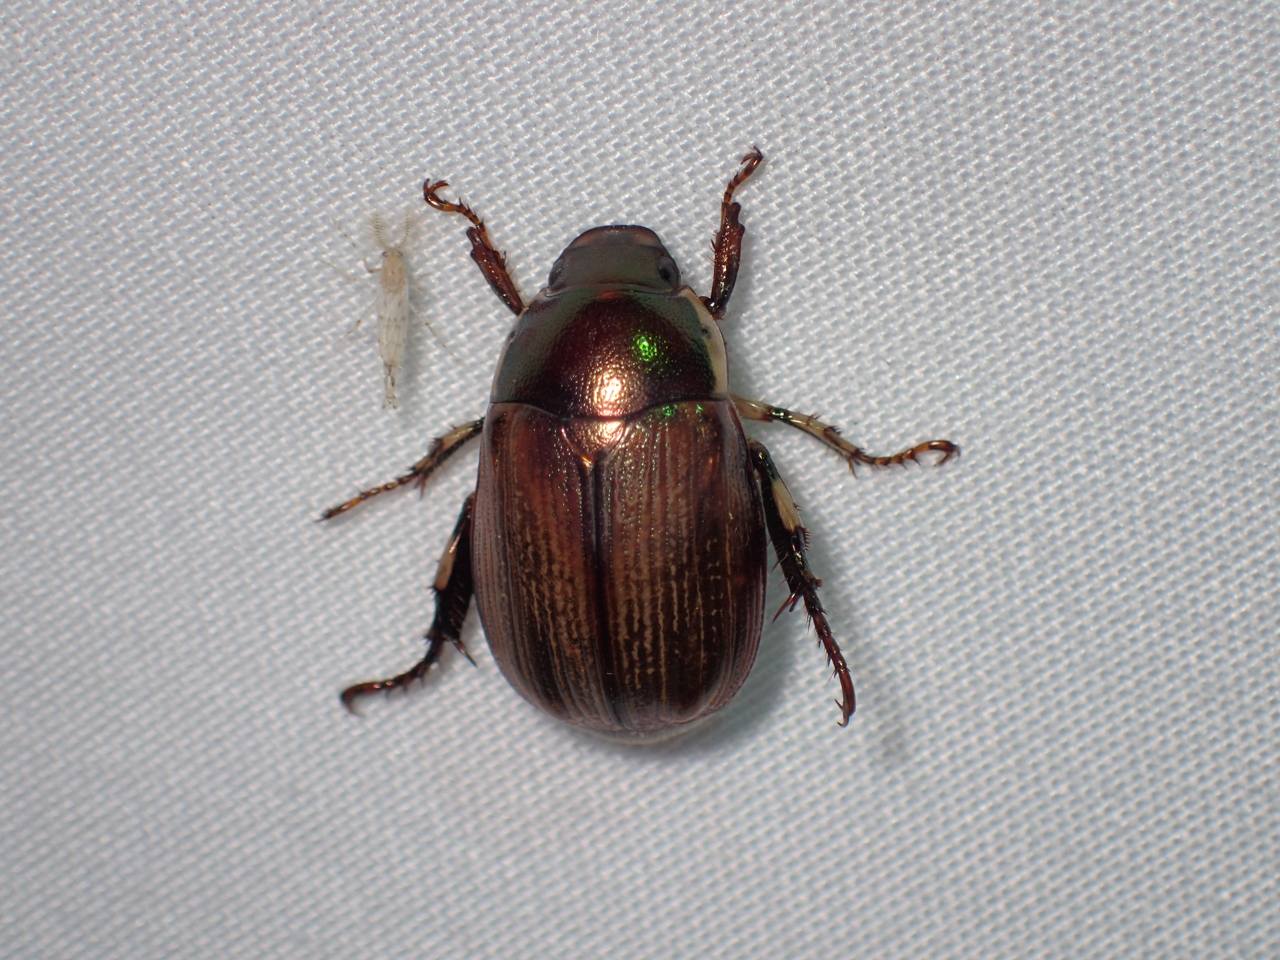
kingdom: Animalia
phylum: Arthropoda
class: Insecta
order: Coleoptera
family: Scarabaeidae
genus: Callistethus
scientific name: Callistethus marginatus
